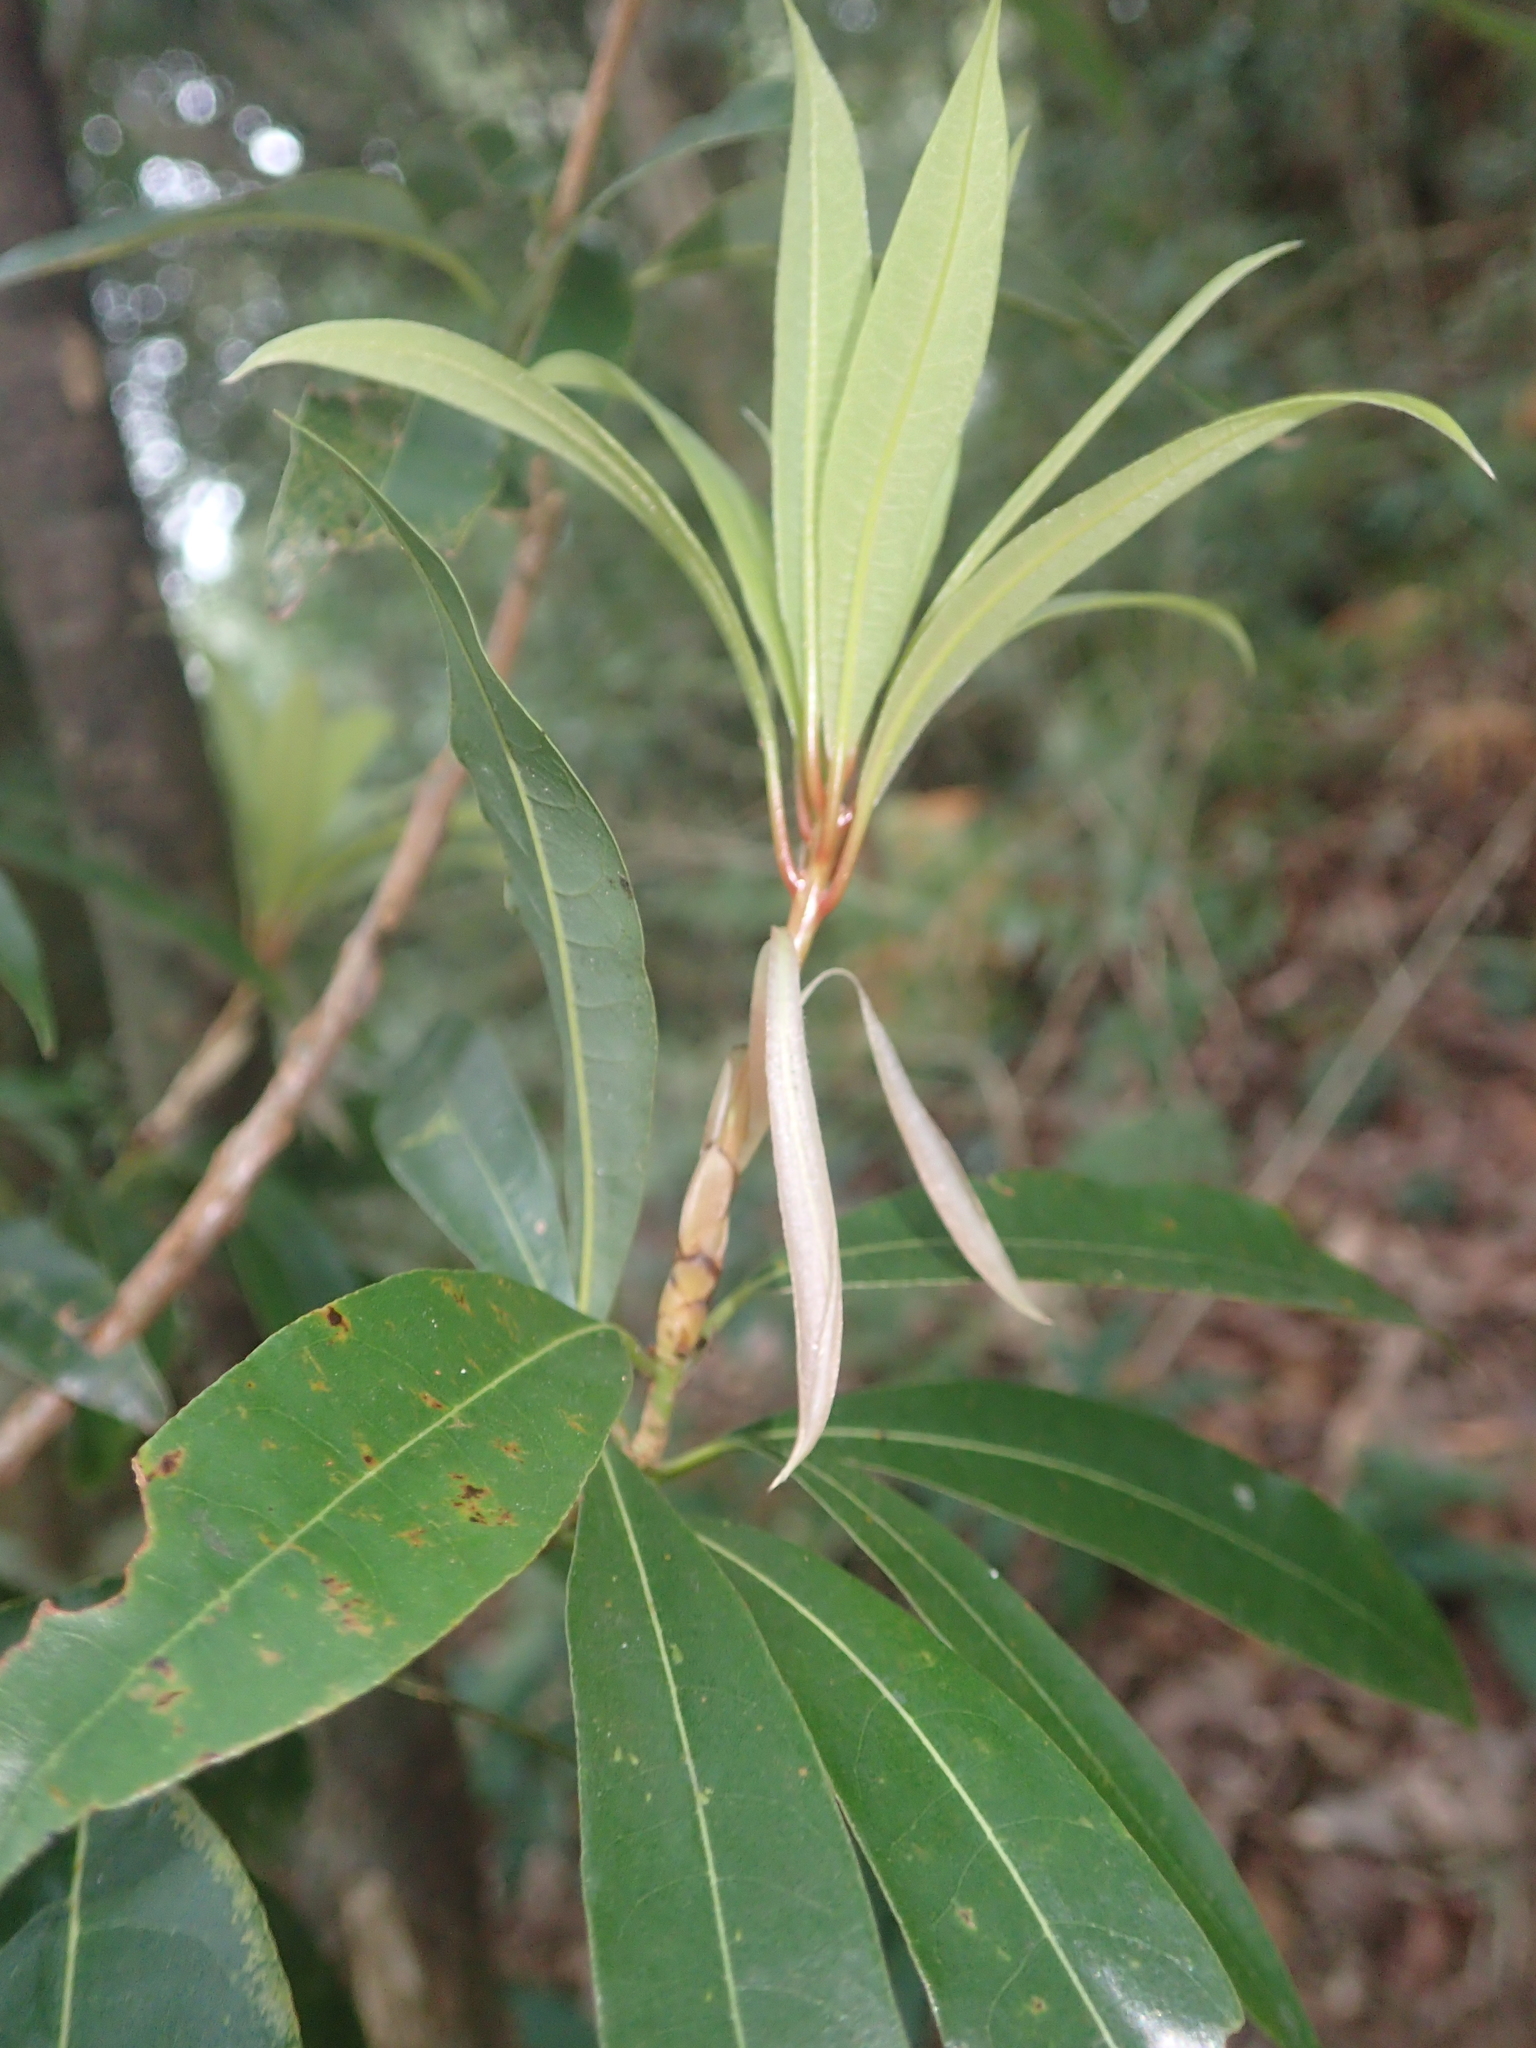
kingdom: Plantae
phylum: Tracheophyta
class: Magnoliopsida
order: Laurales
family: Lauraceae
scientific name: Lauraceae
